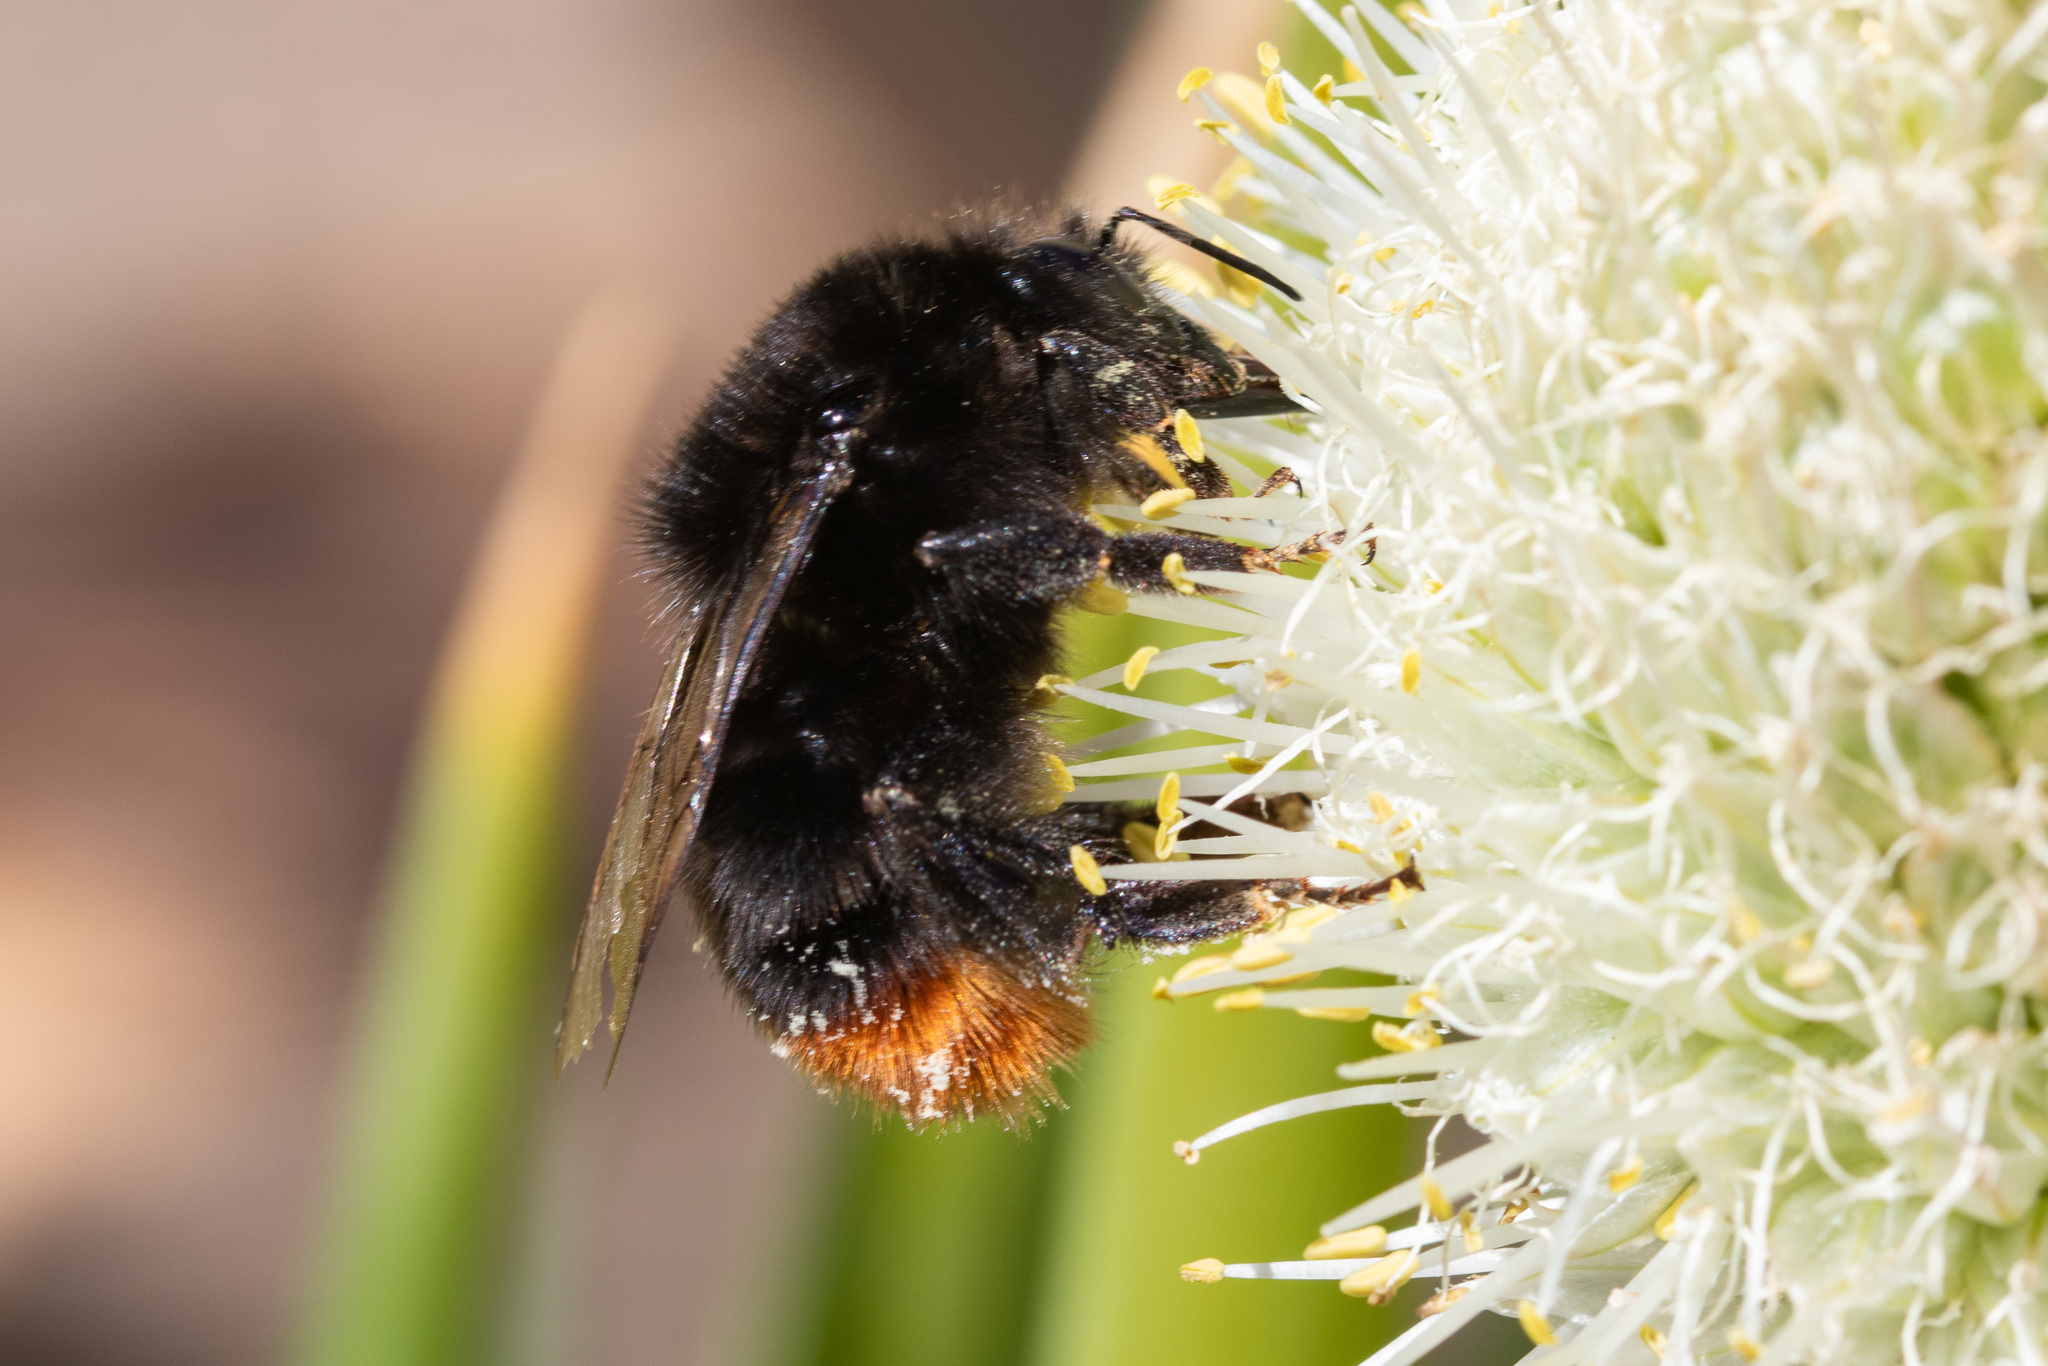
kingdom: Animalia
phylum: Arthropoda
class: Insecta
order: Hymenoptera
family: Apidae
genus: Bombus
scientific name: Bombus lapidarius
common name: Large red-tailed humble-bee
